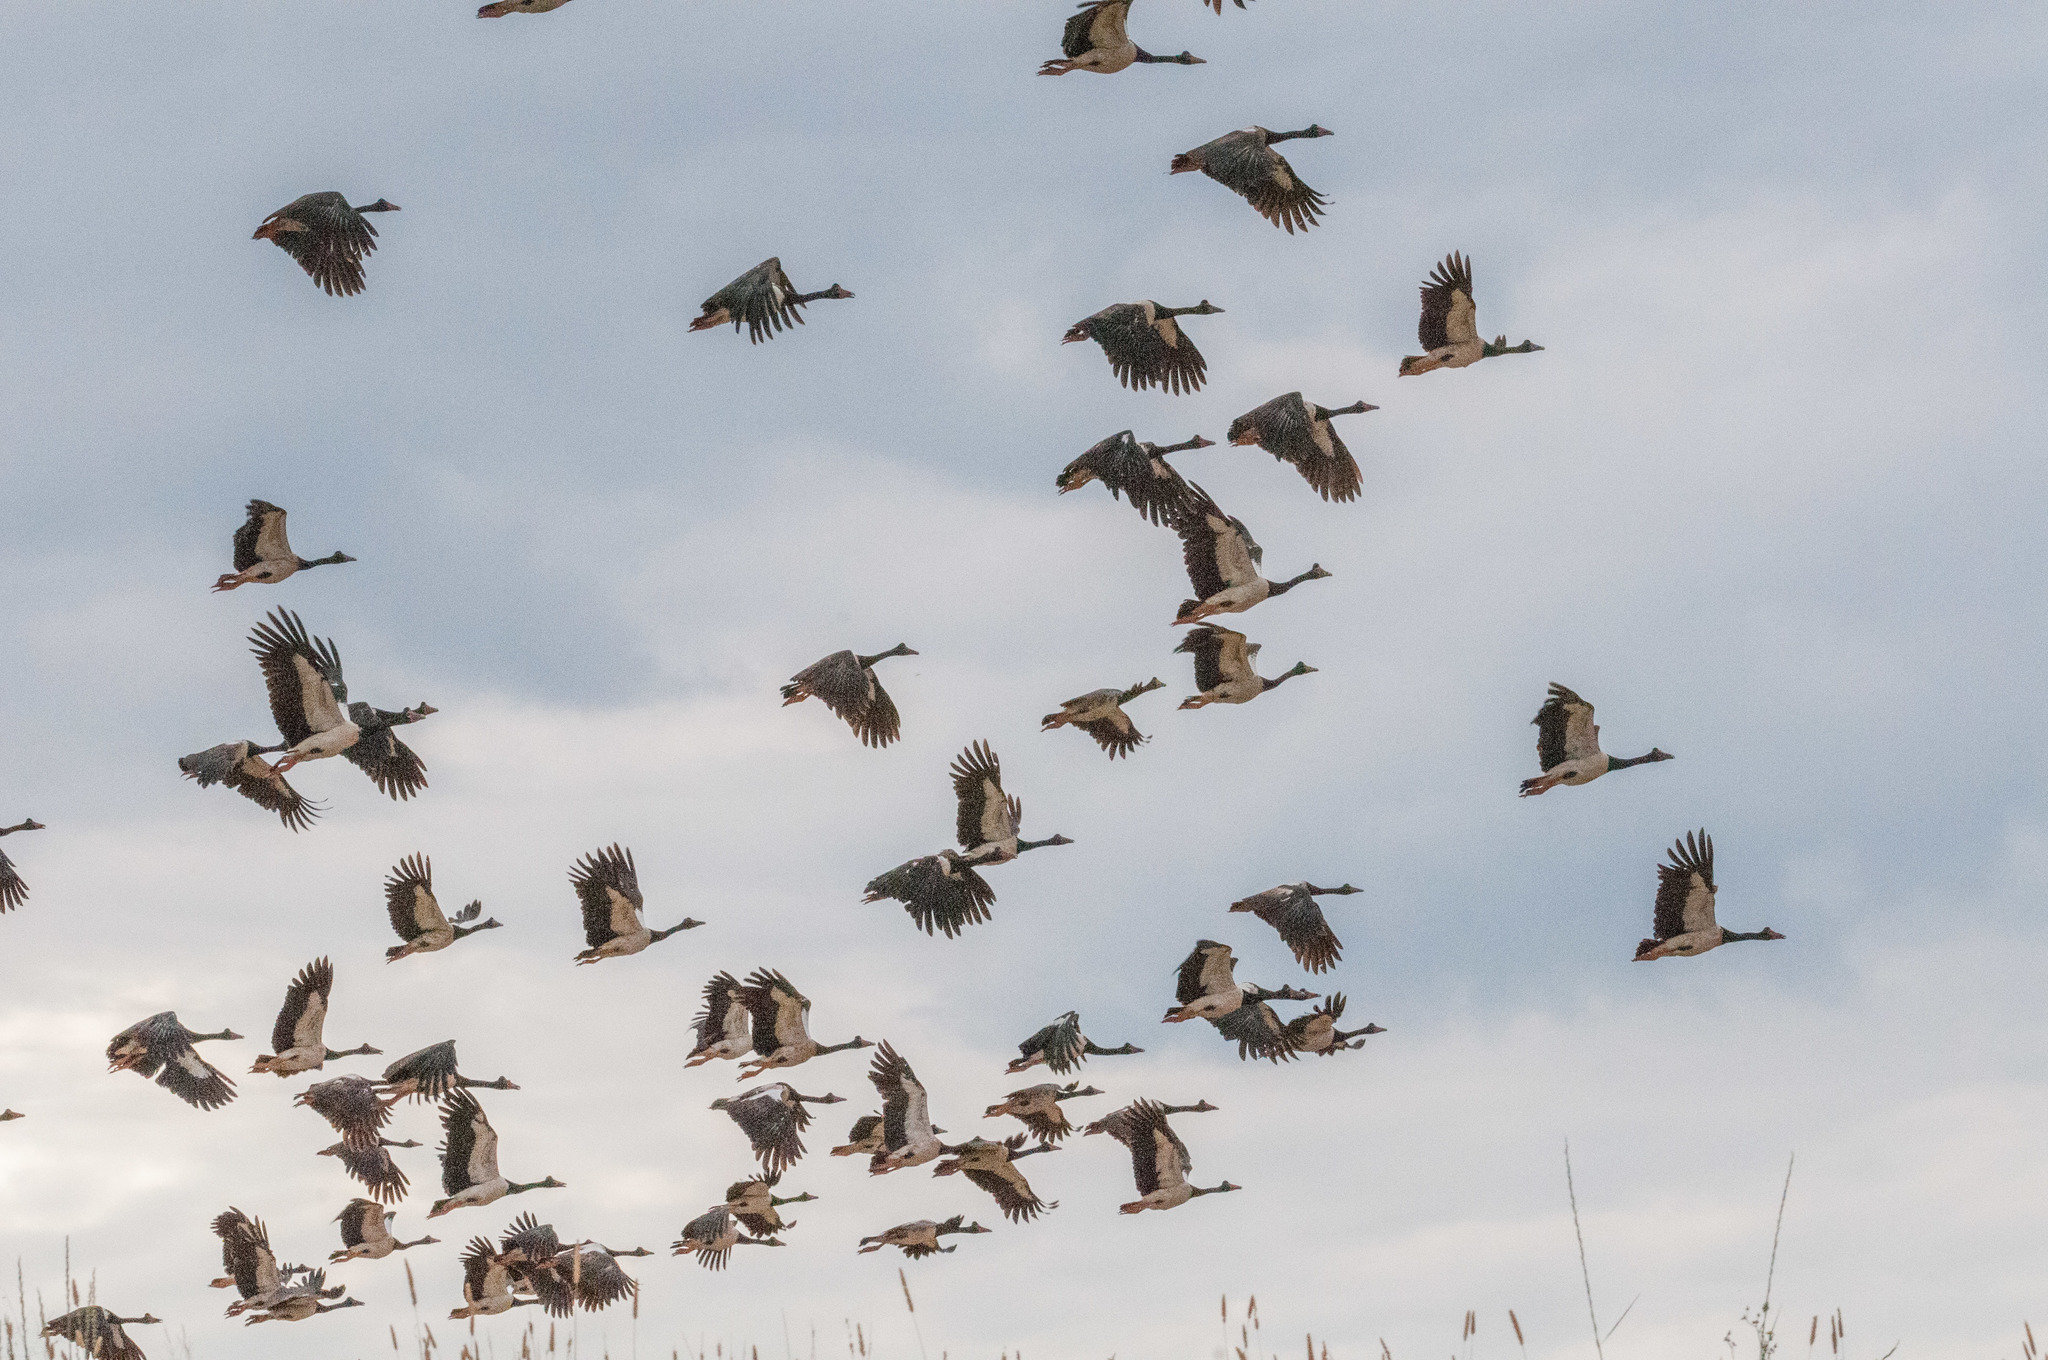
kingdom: Animalia
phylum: Chordata
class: Aves
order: Anseriformes
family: Anseranatidae
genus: Anseranas
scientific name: Anseranas semipalmata
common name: Magpie goose
